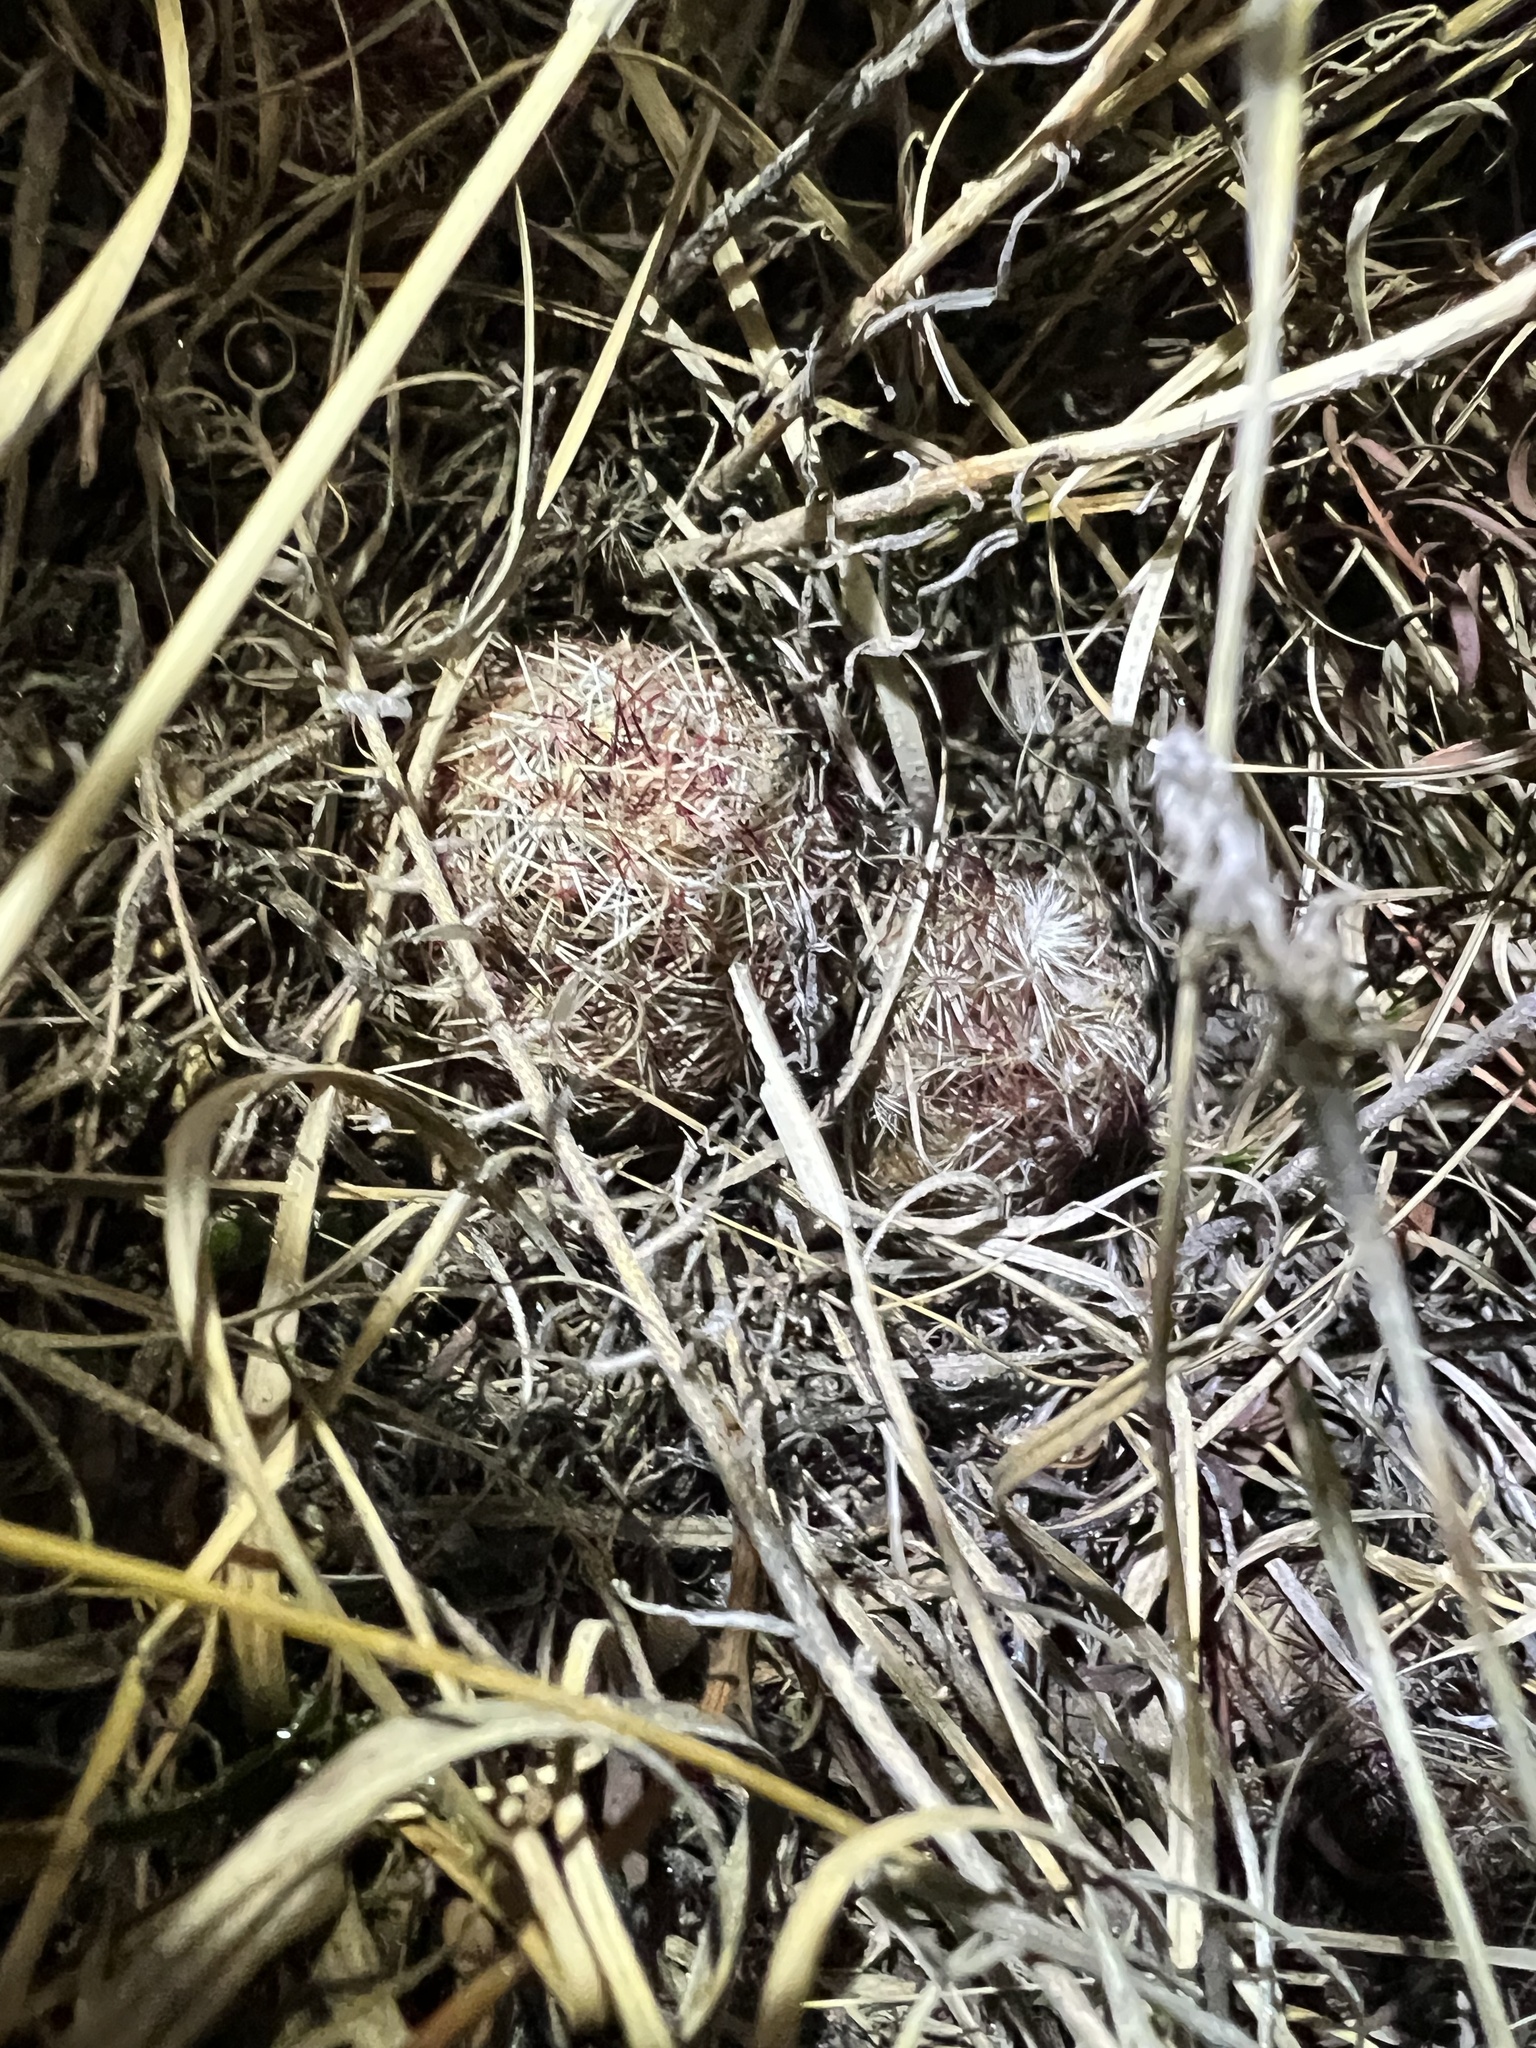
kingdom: Plantae
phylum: Tracheophyta
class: Magnoliopsida
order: Caryophyllales
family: Cactaceae
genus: Echinocereus
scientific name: Echinocereus viridiflorus
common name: Nylon hedgehog cactus
